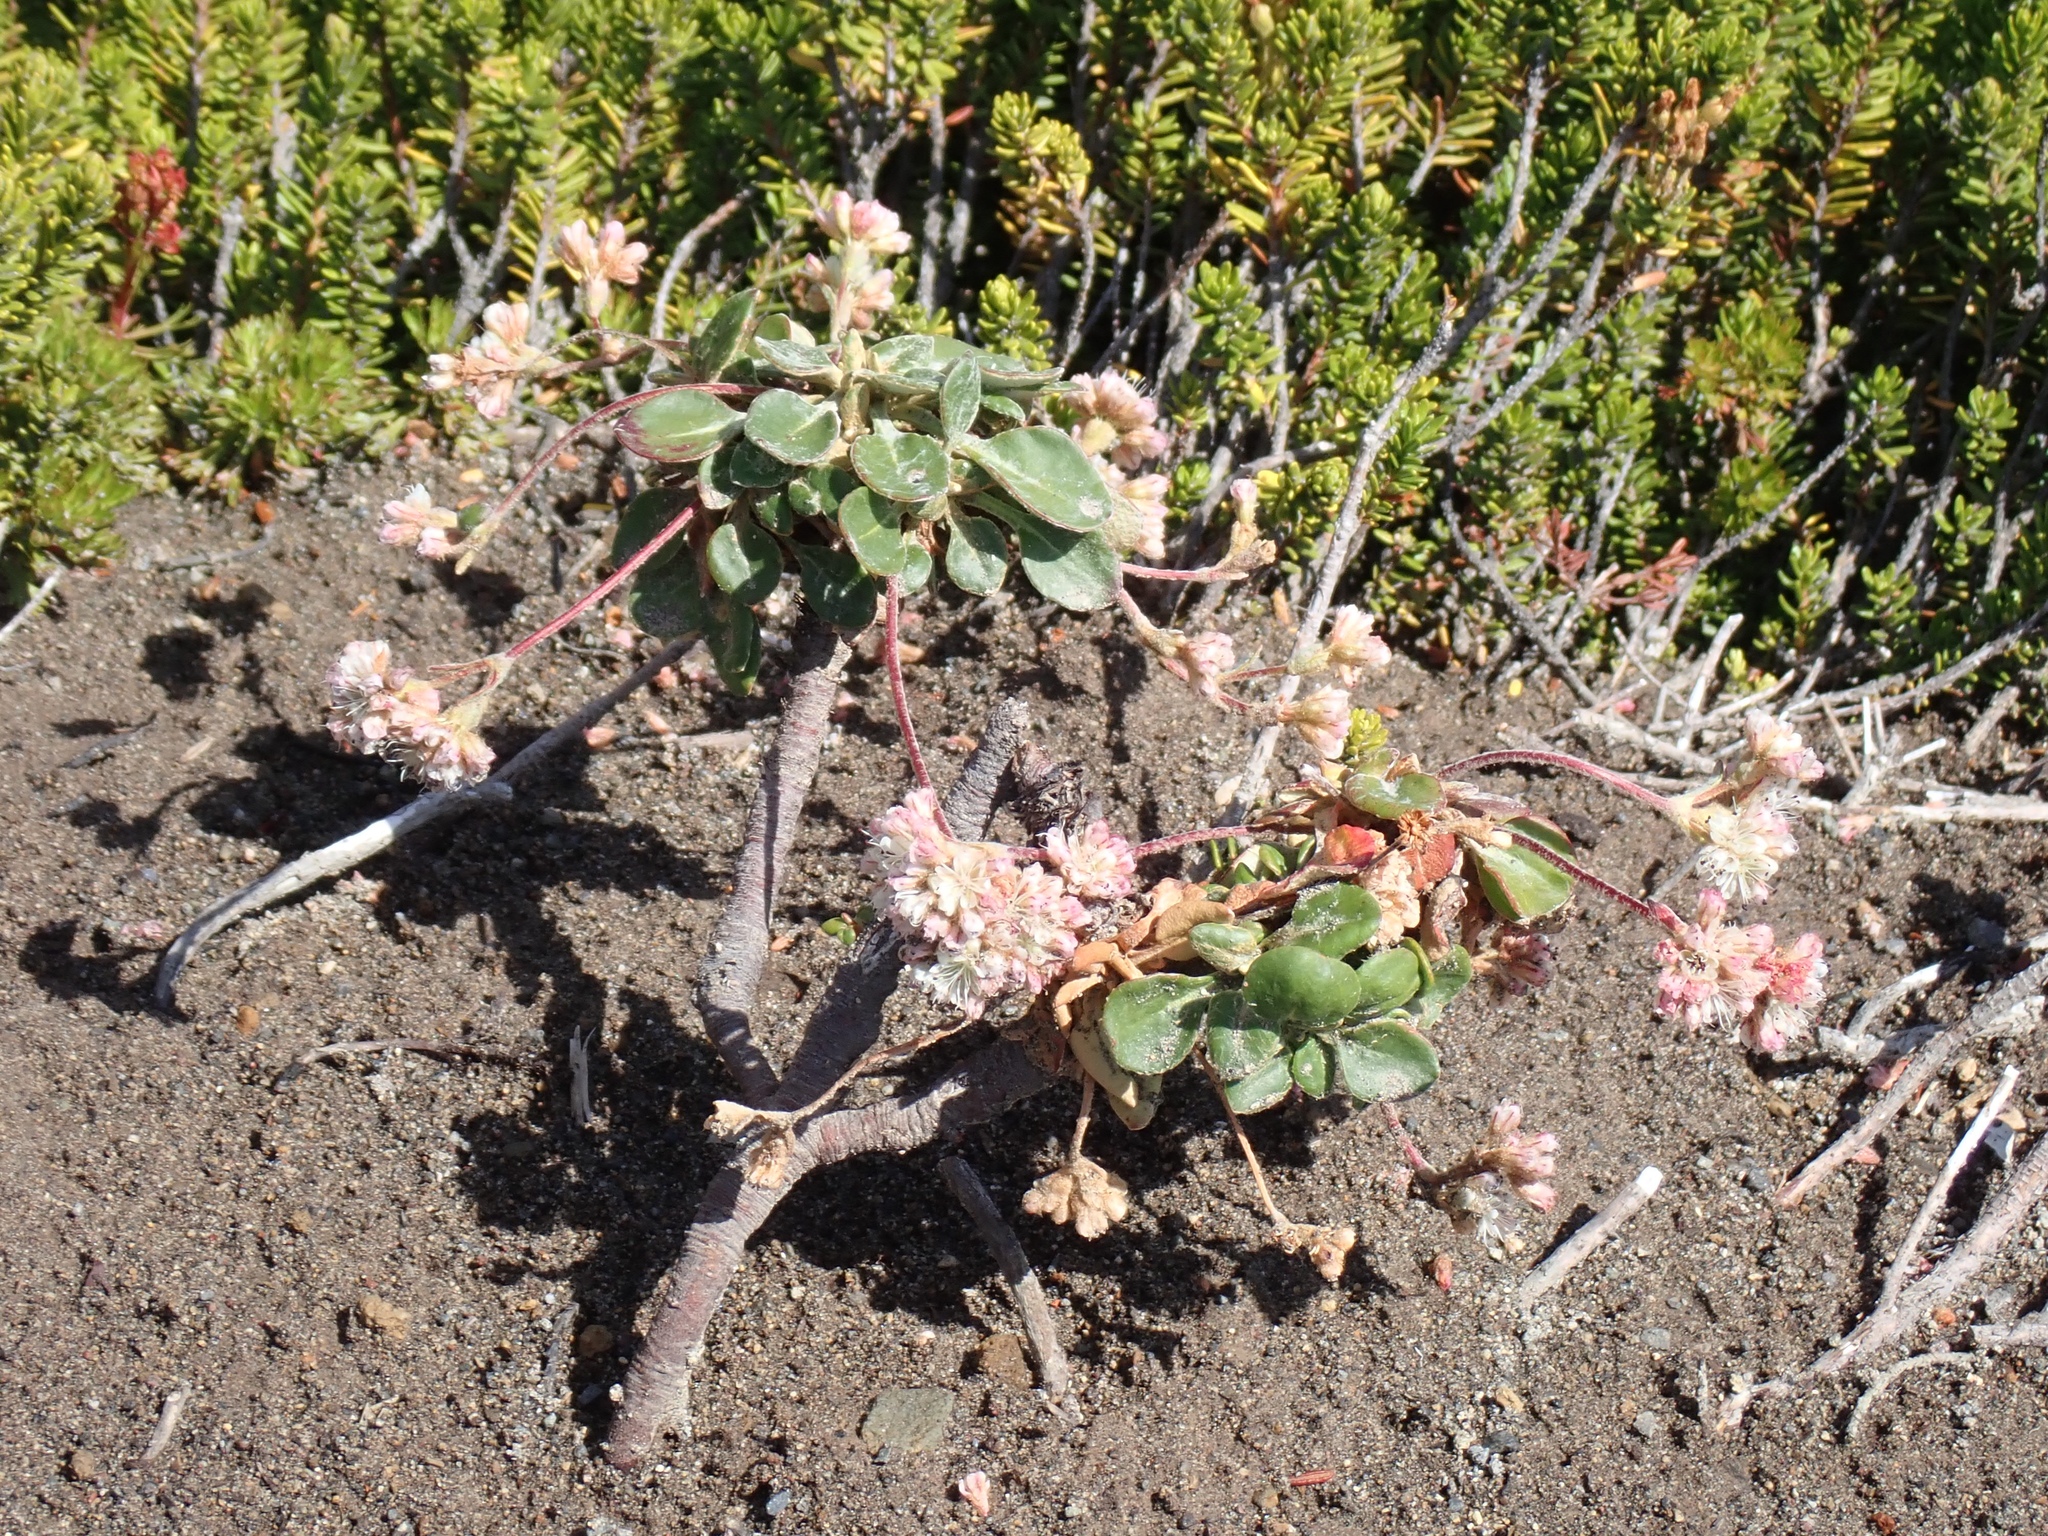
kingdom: Plantae
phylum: Tracheophyta
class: Magnoliopsida
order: Caryophyllales
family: Polygonaceae
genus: Eriogonum
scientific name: Eriogonum pyrolifolium
